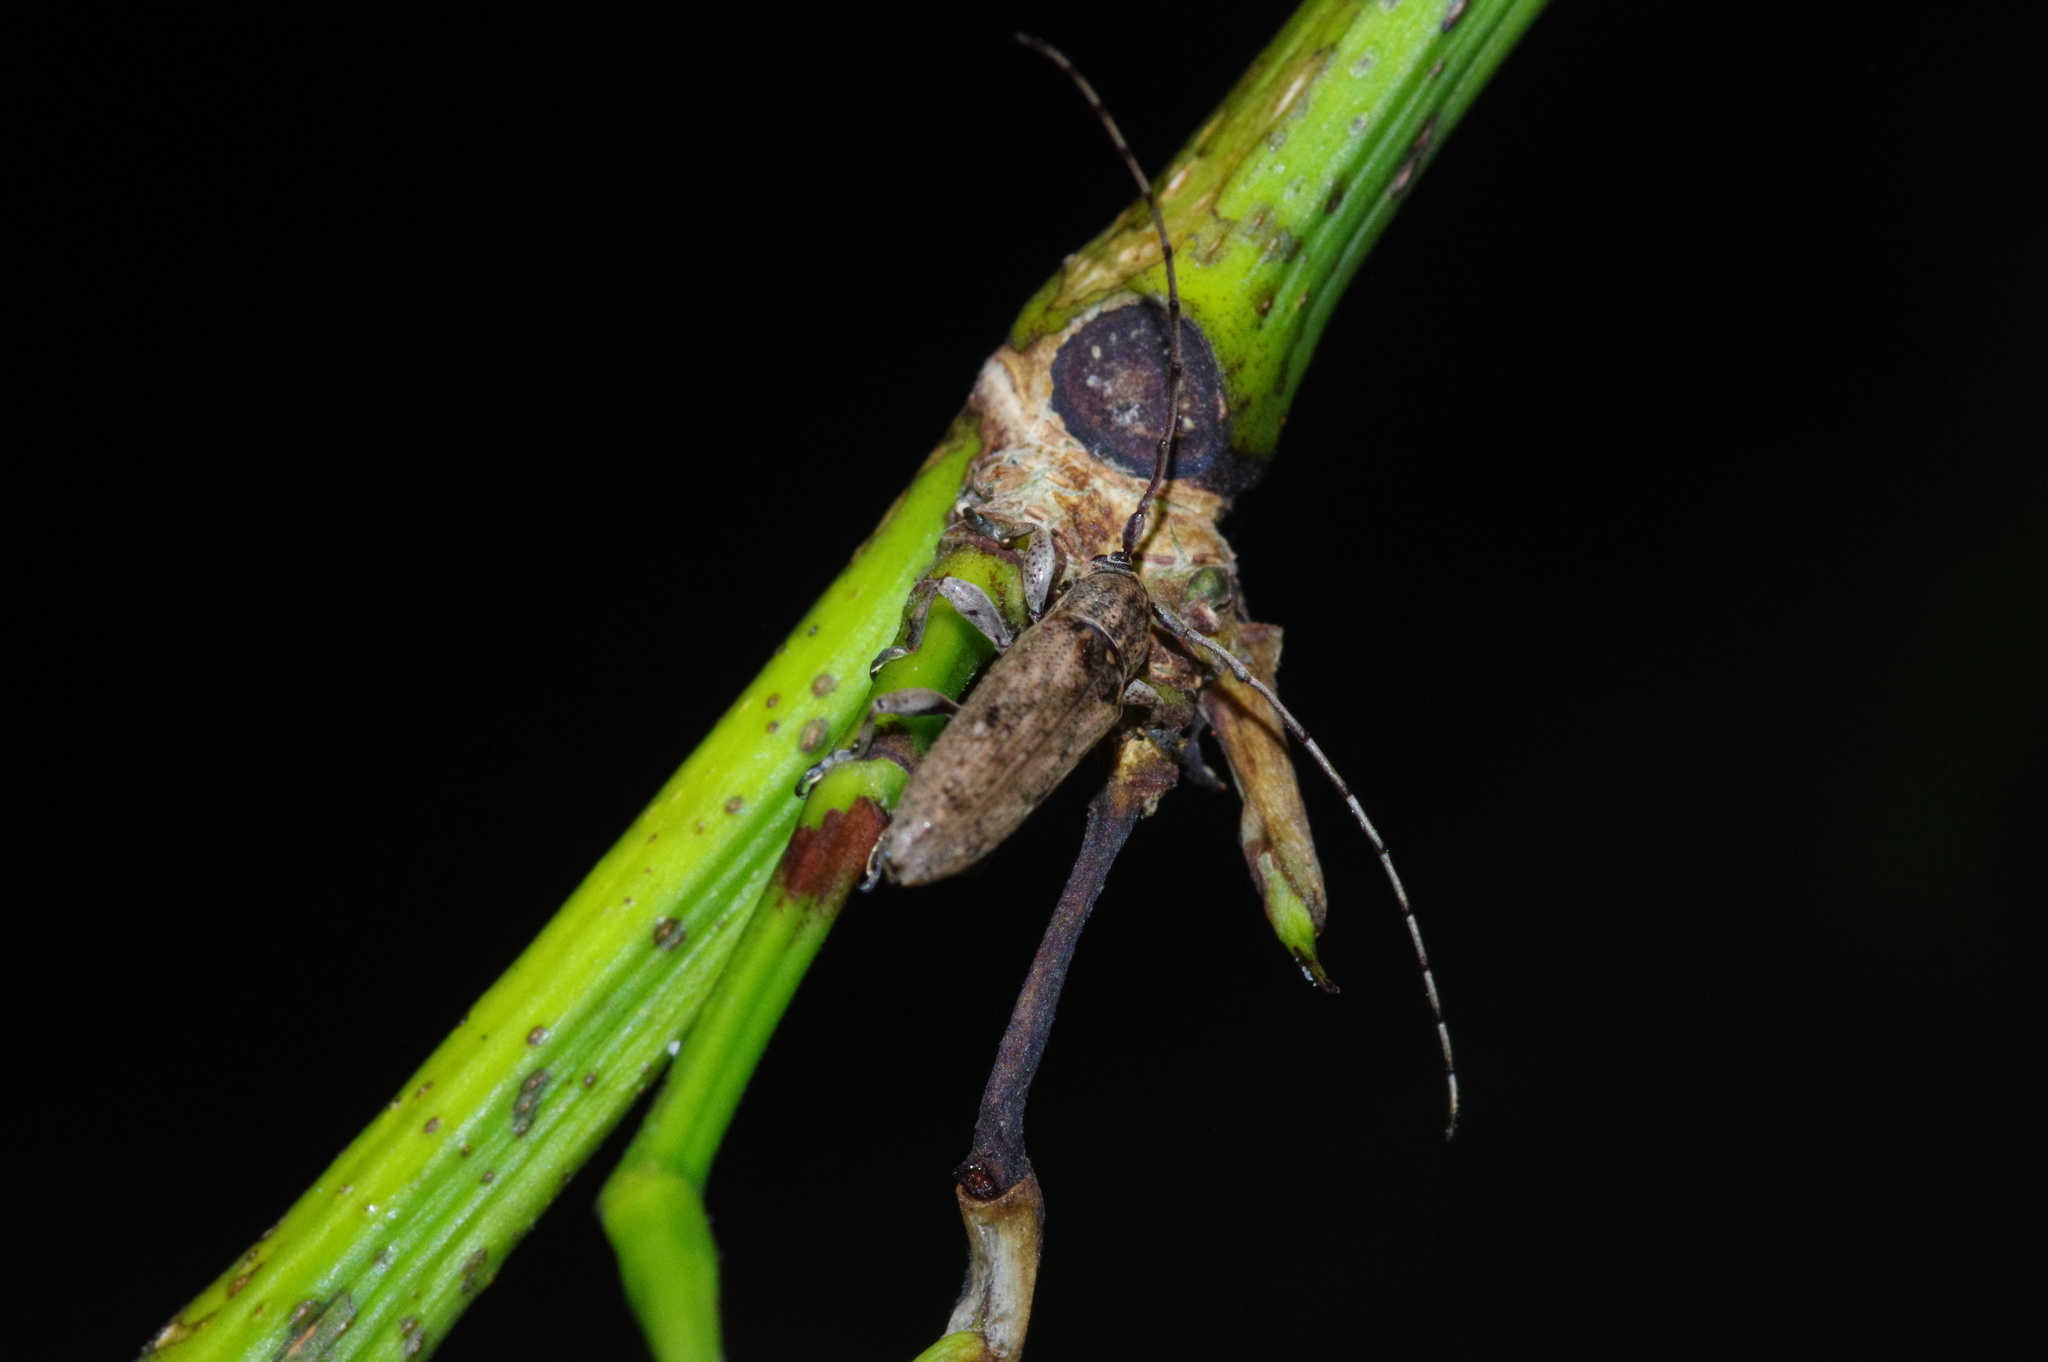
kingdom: Animalia
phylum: Arthropoda
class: Insecta
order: Coleoptera
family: Cerambycidae
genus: Mycerinopsis
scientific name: Mycerinopsis ordinata
